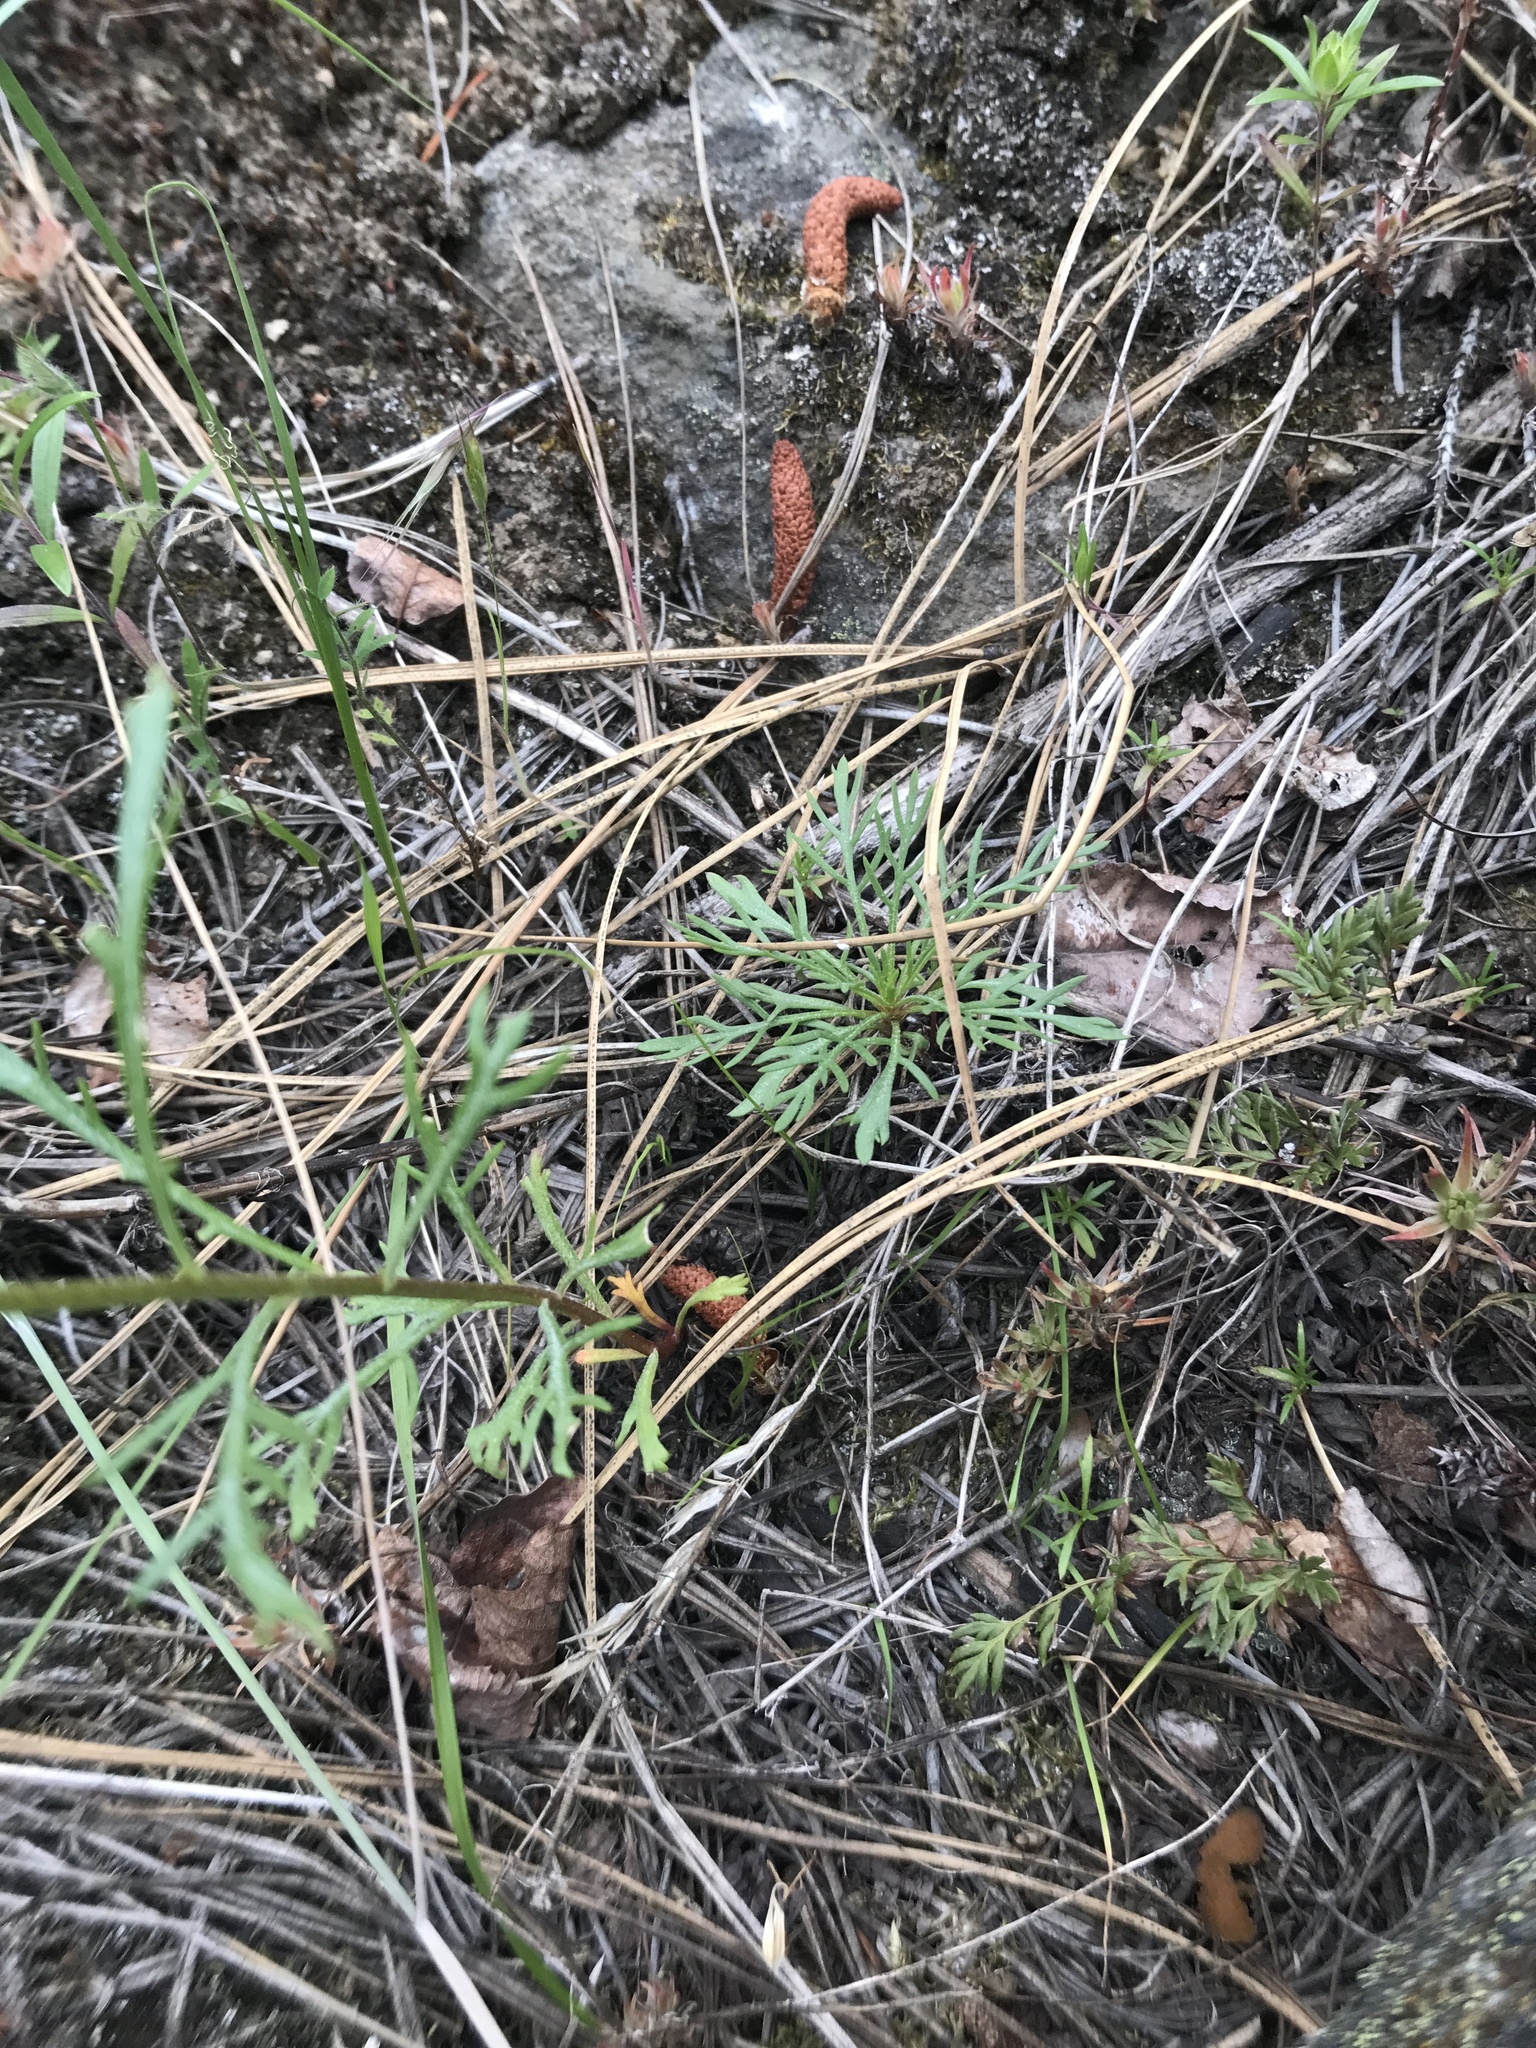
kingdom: Plantae
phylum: Tracheophyta
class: Magnoliopsida
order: Ericales
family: Polemoniaceae
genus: Ipomopsis
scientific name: Ipomopsis aggregata
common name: Scarlet gilia
